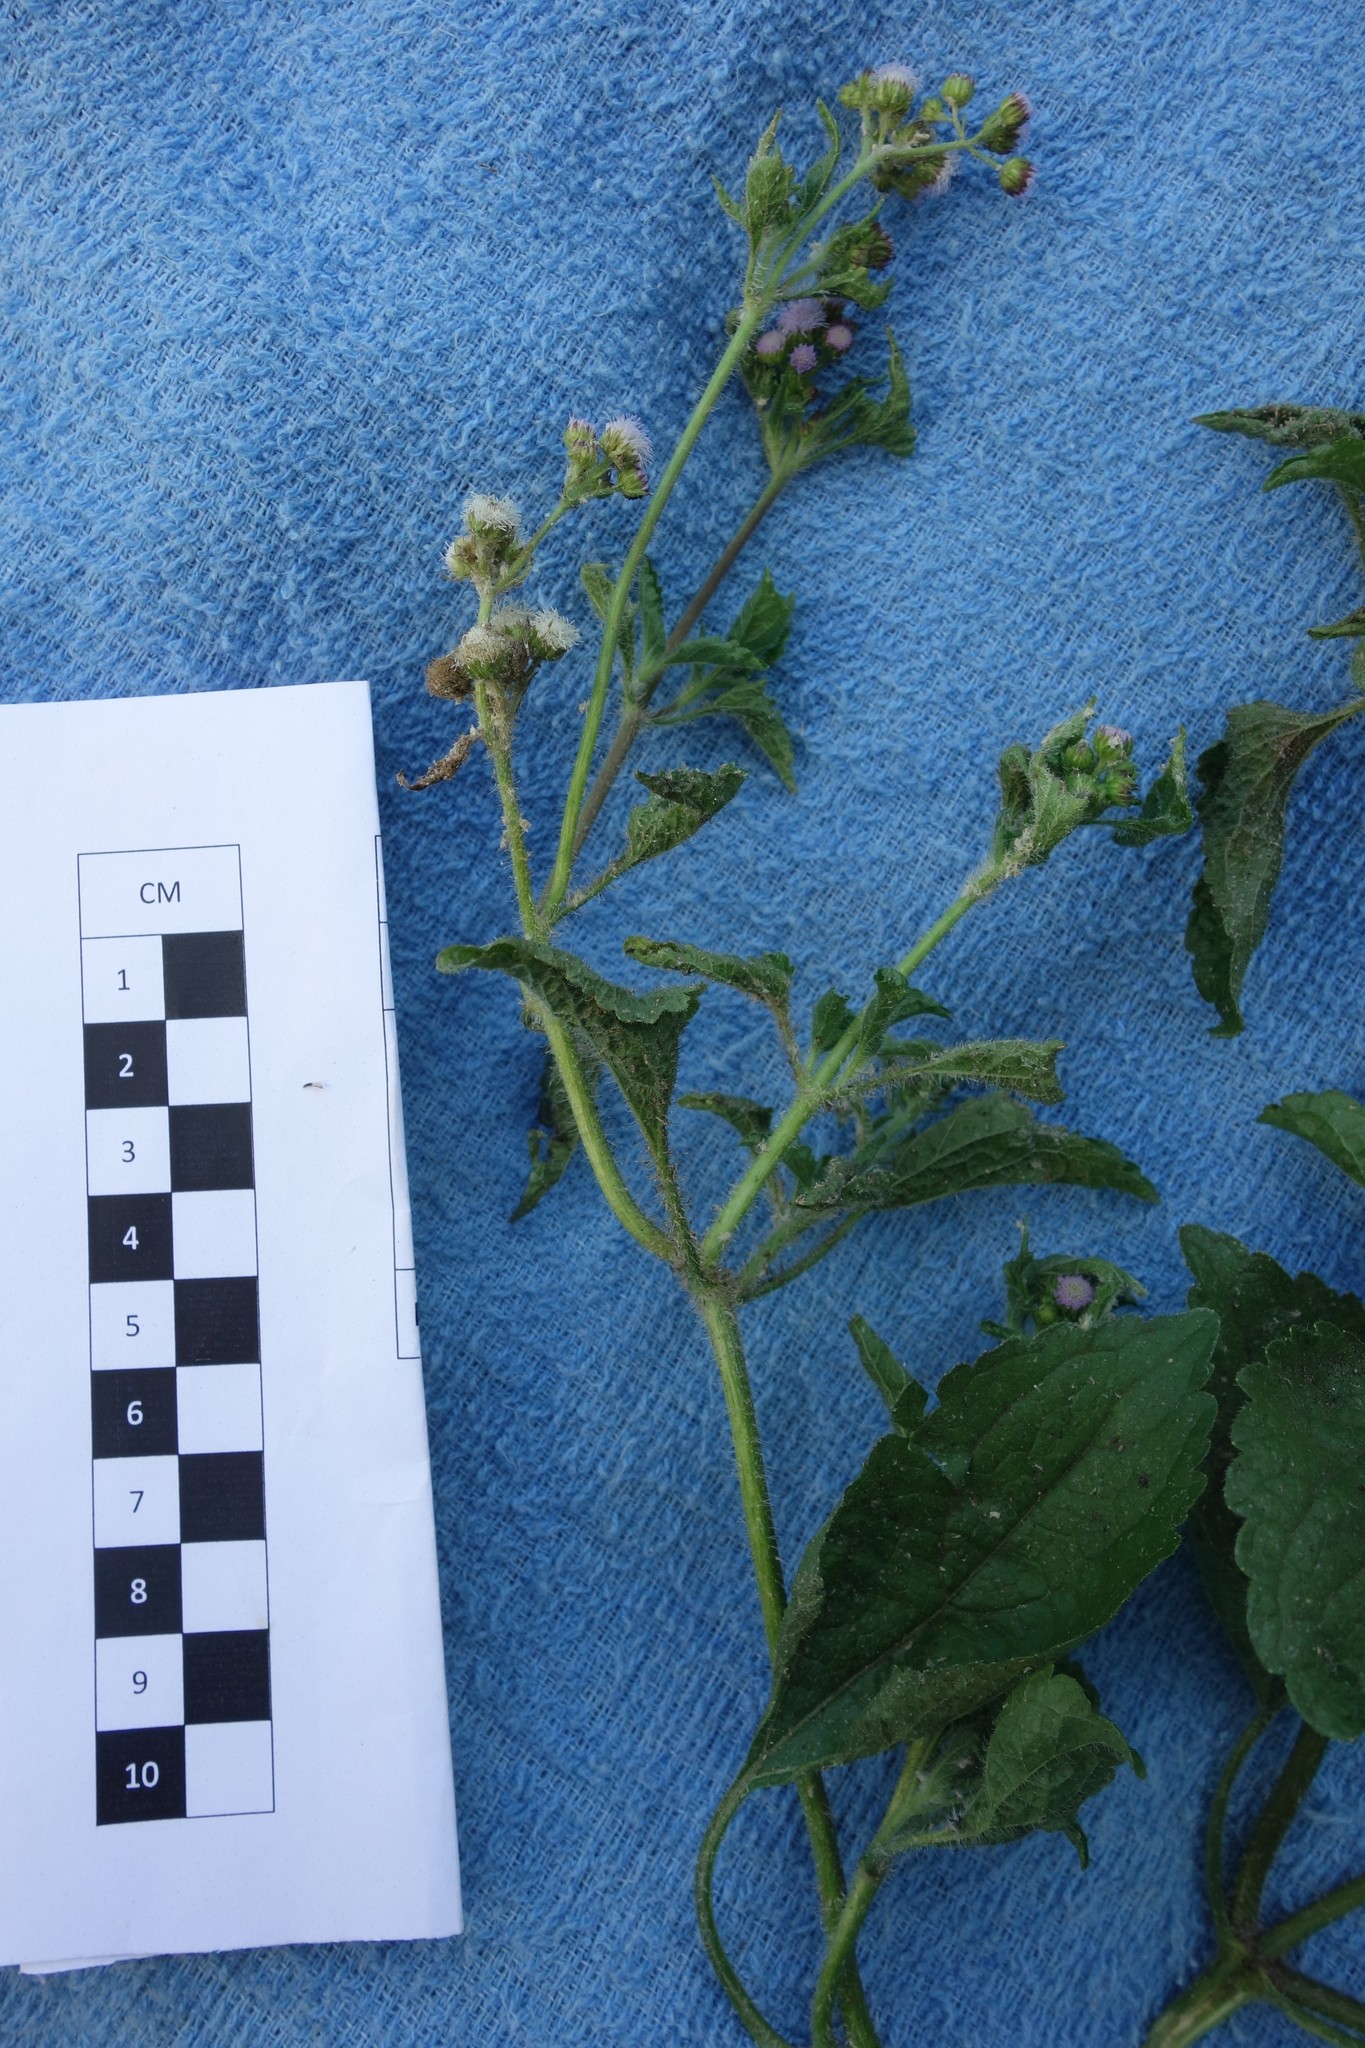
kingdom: Plantae
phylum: Tracheophyta
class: Magnoliopsida
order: Asterales
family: Asteraceae
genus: Ageratum
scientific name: Ageratum conyzoides
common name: Tropical whiteweed
